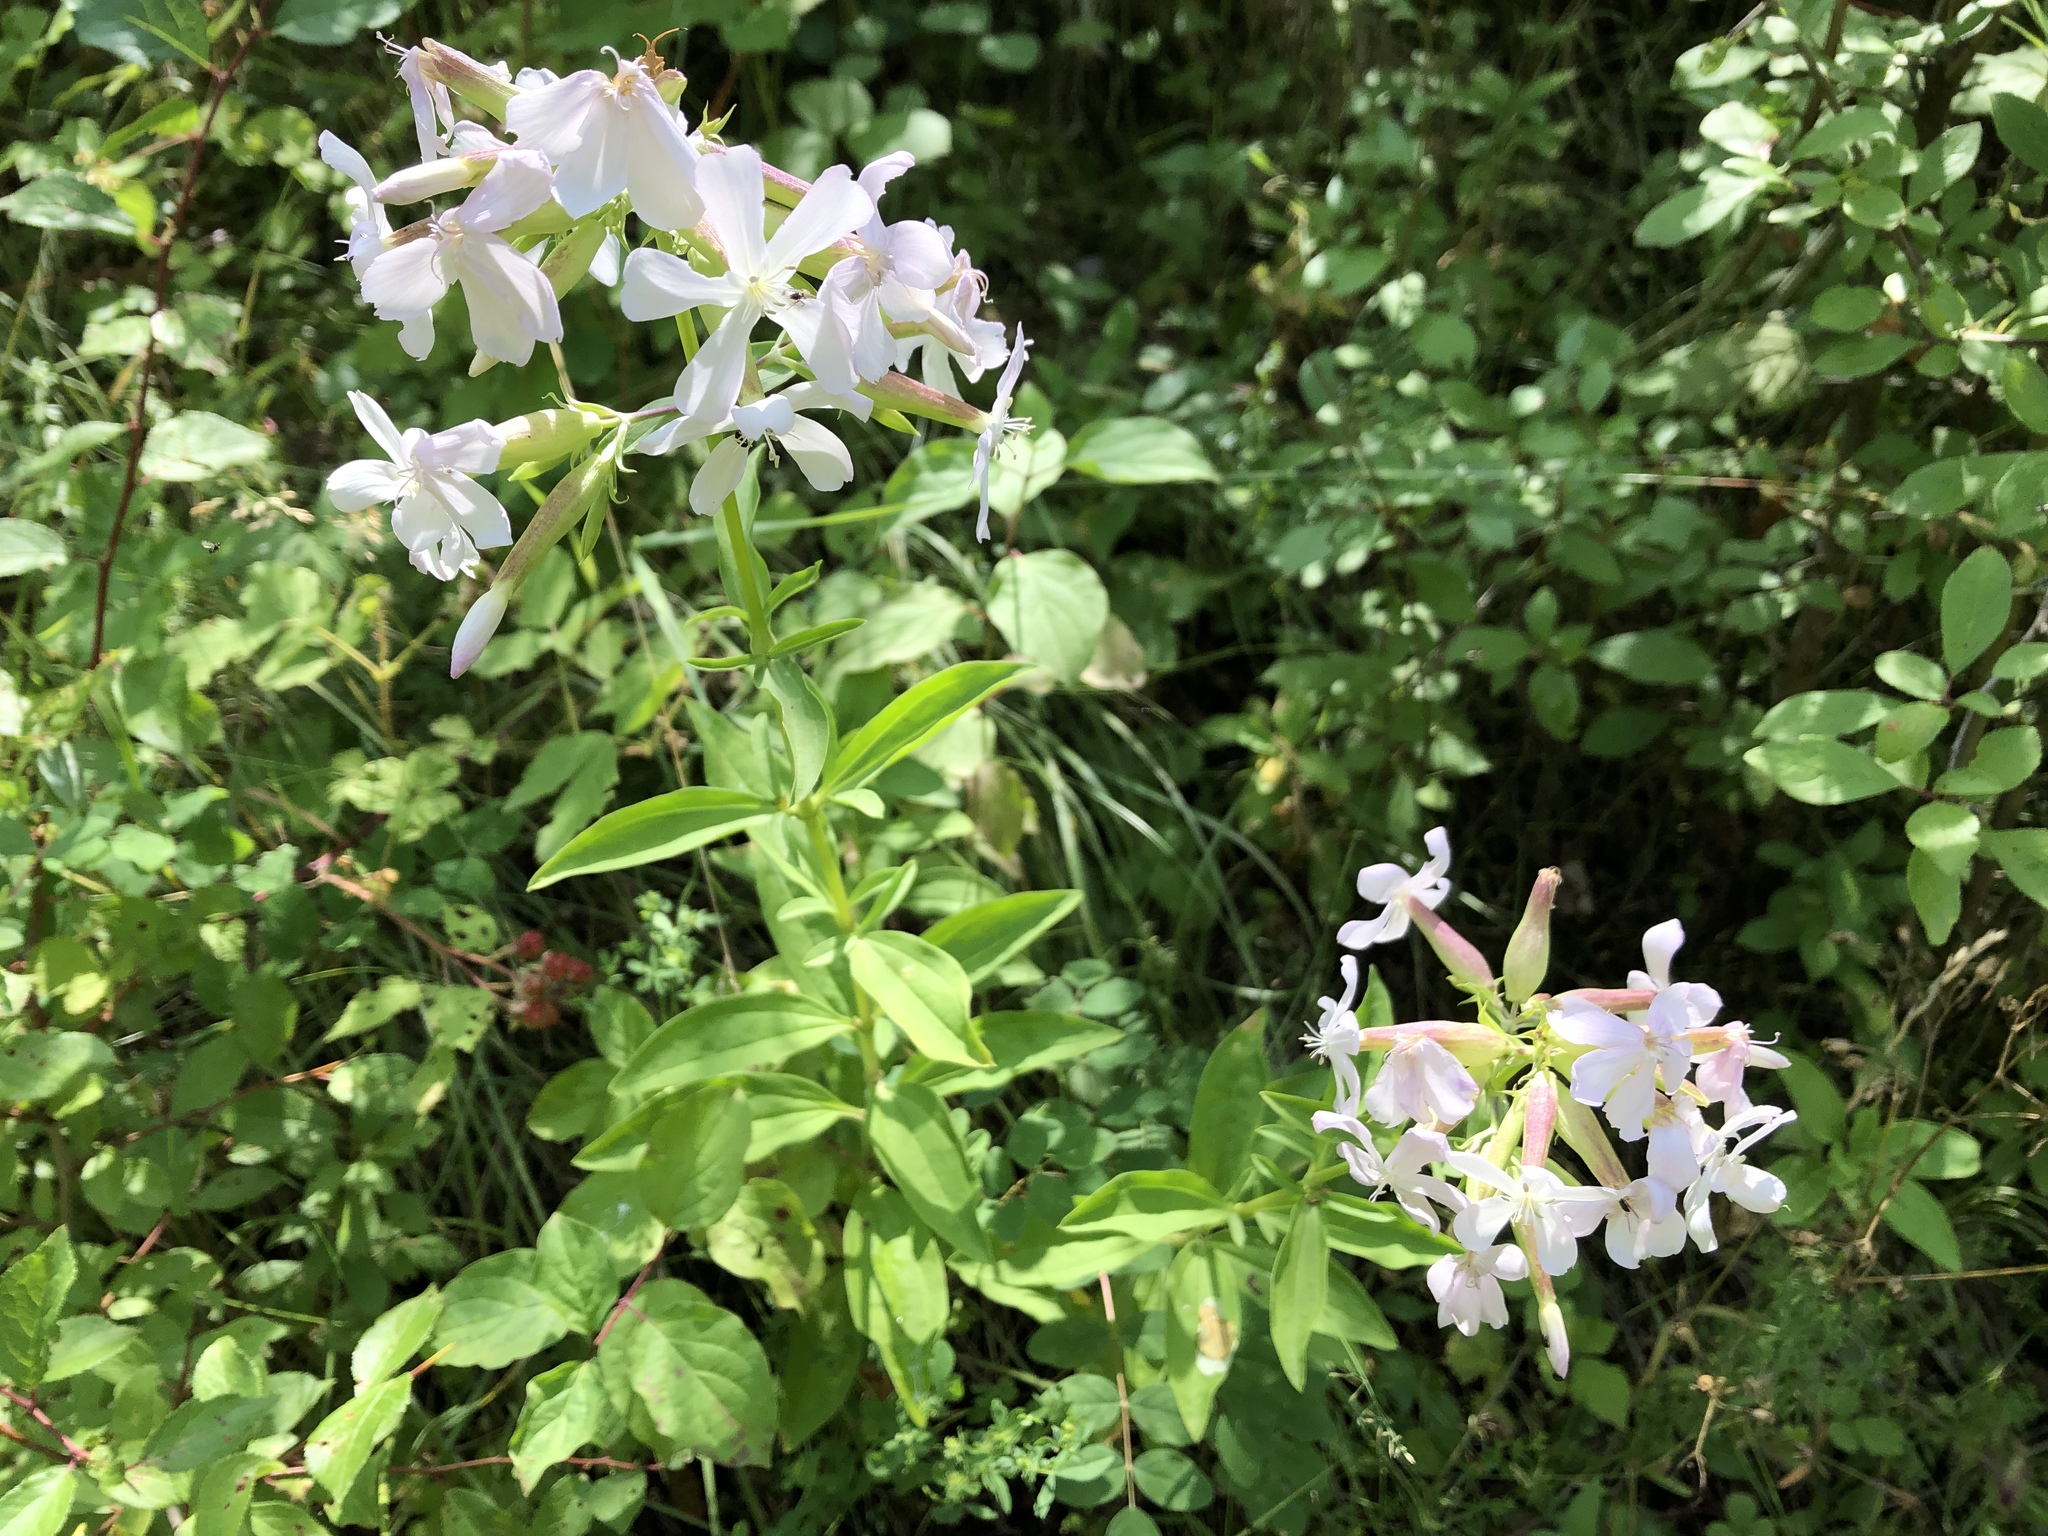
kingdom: Plantae
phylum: Tracheophyta
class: Magnoliopsida
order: Caryophyllales
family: Caryophyllaceae
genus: Saponaria
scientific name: Saponaria officinalis
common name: Soapwort
